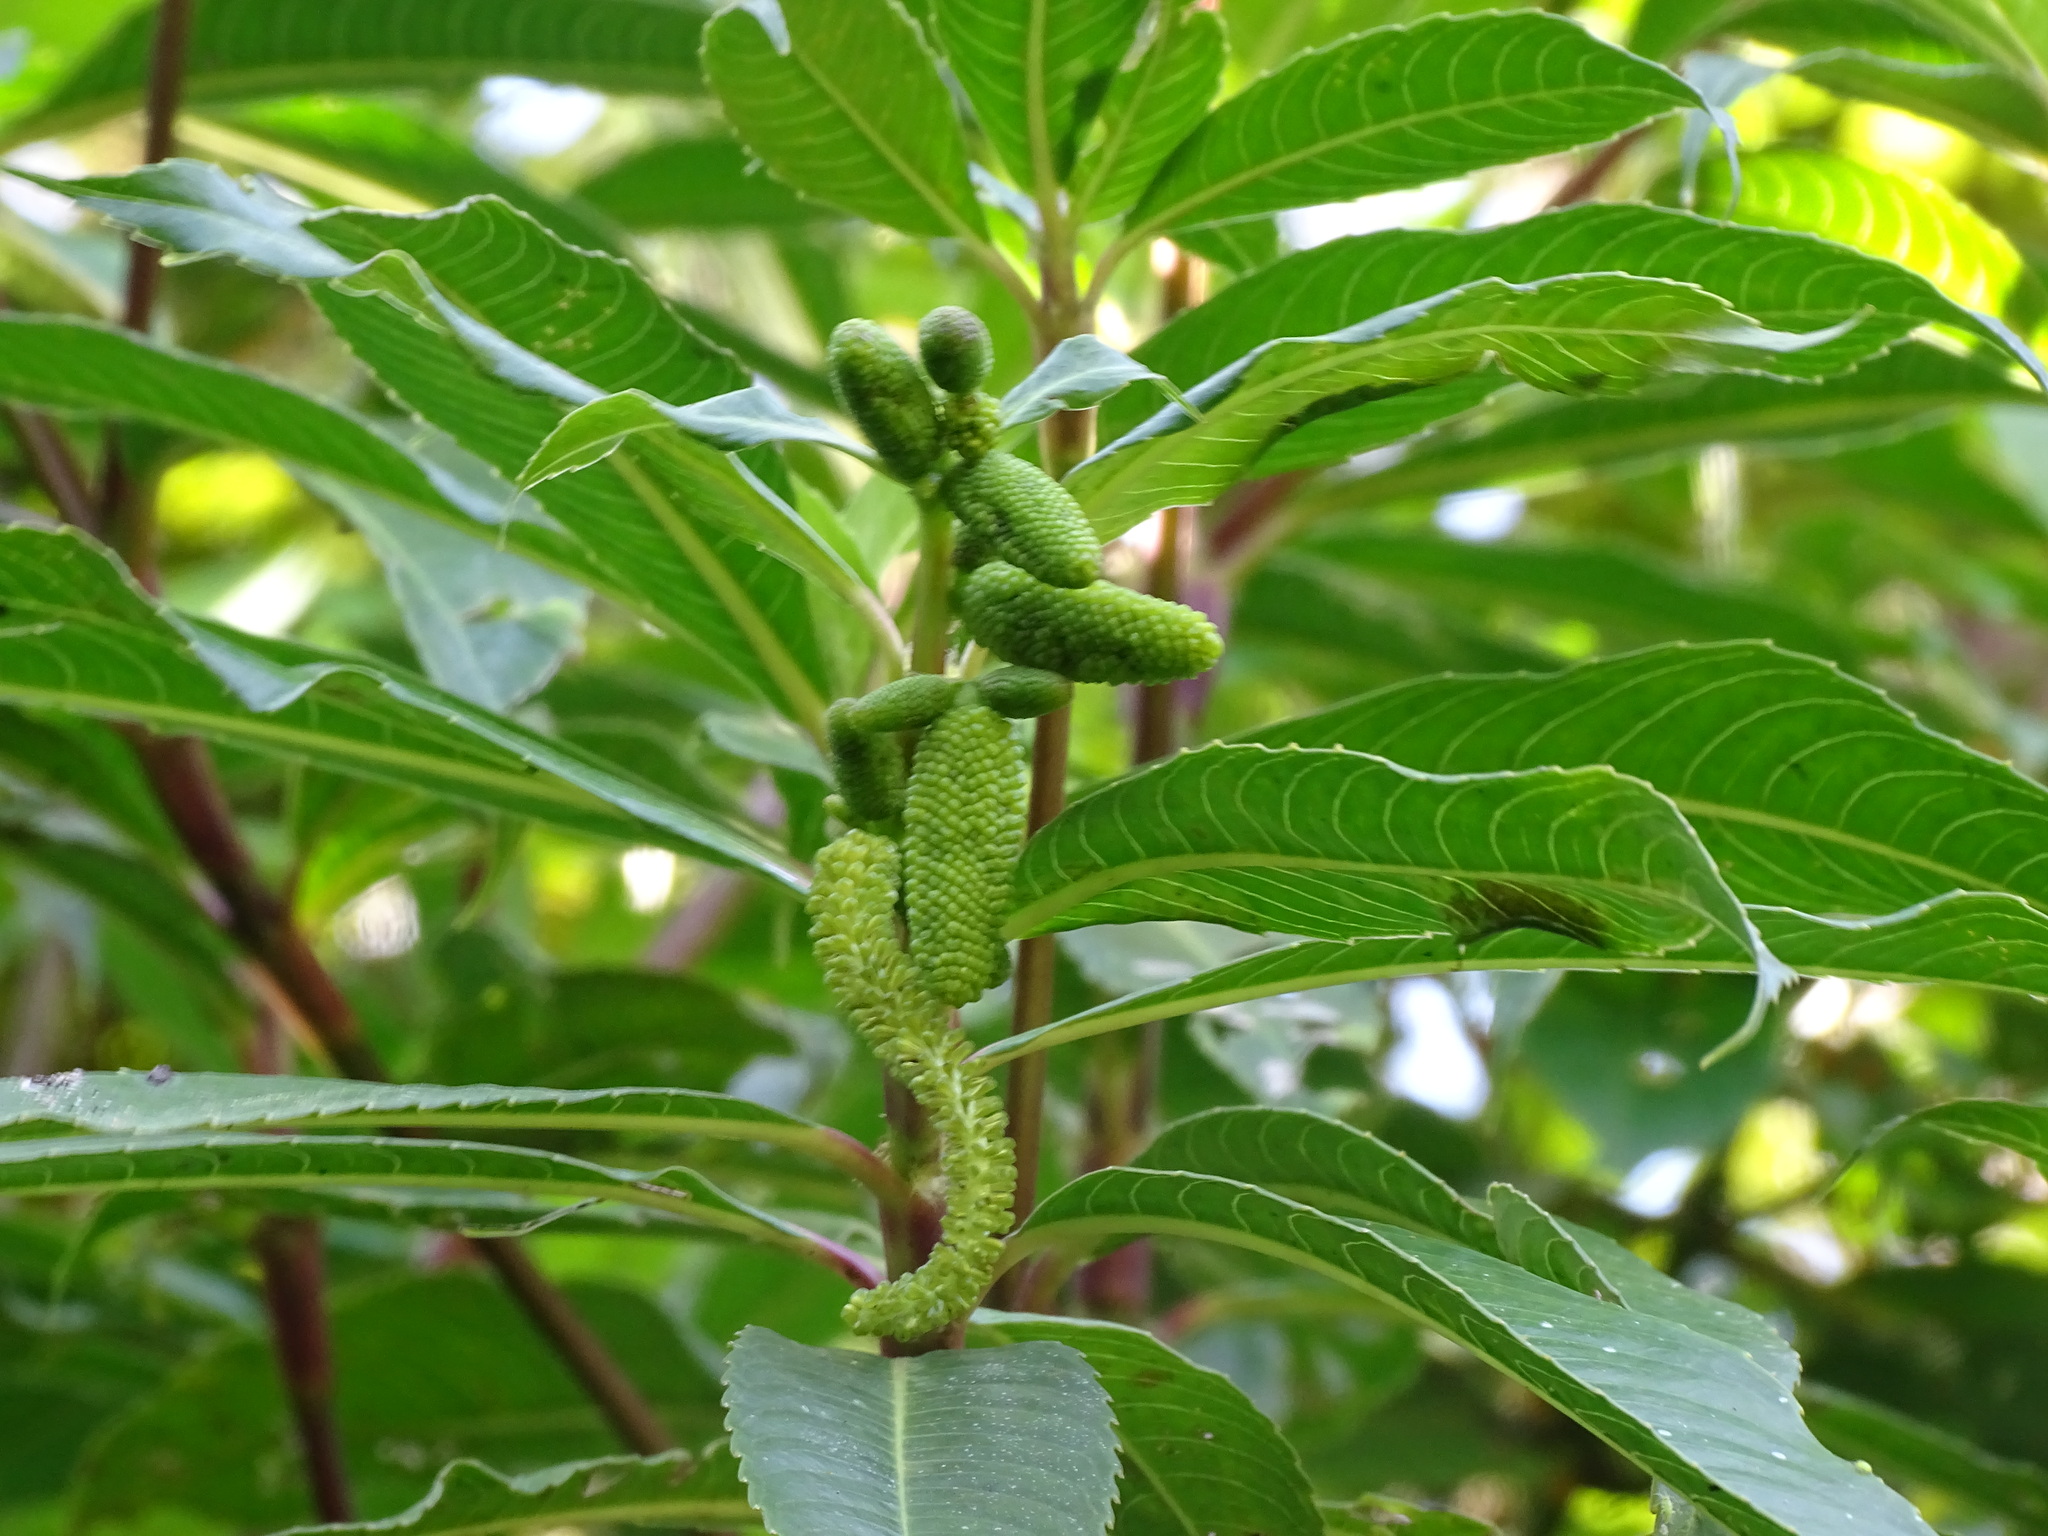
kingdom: Plantae
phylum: Tracheophyta
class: Magnoliopsida
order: Chloranthales
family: Chloranthaceae
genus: Hedyosmum
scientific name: Hedyosmum mexicanum
